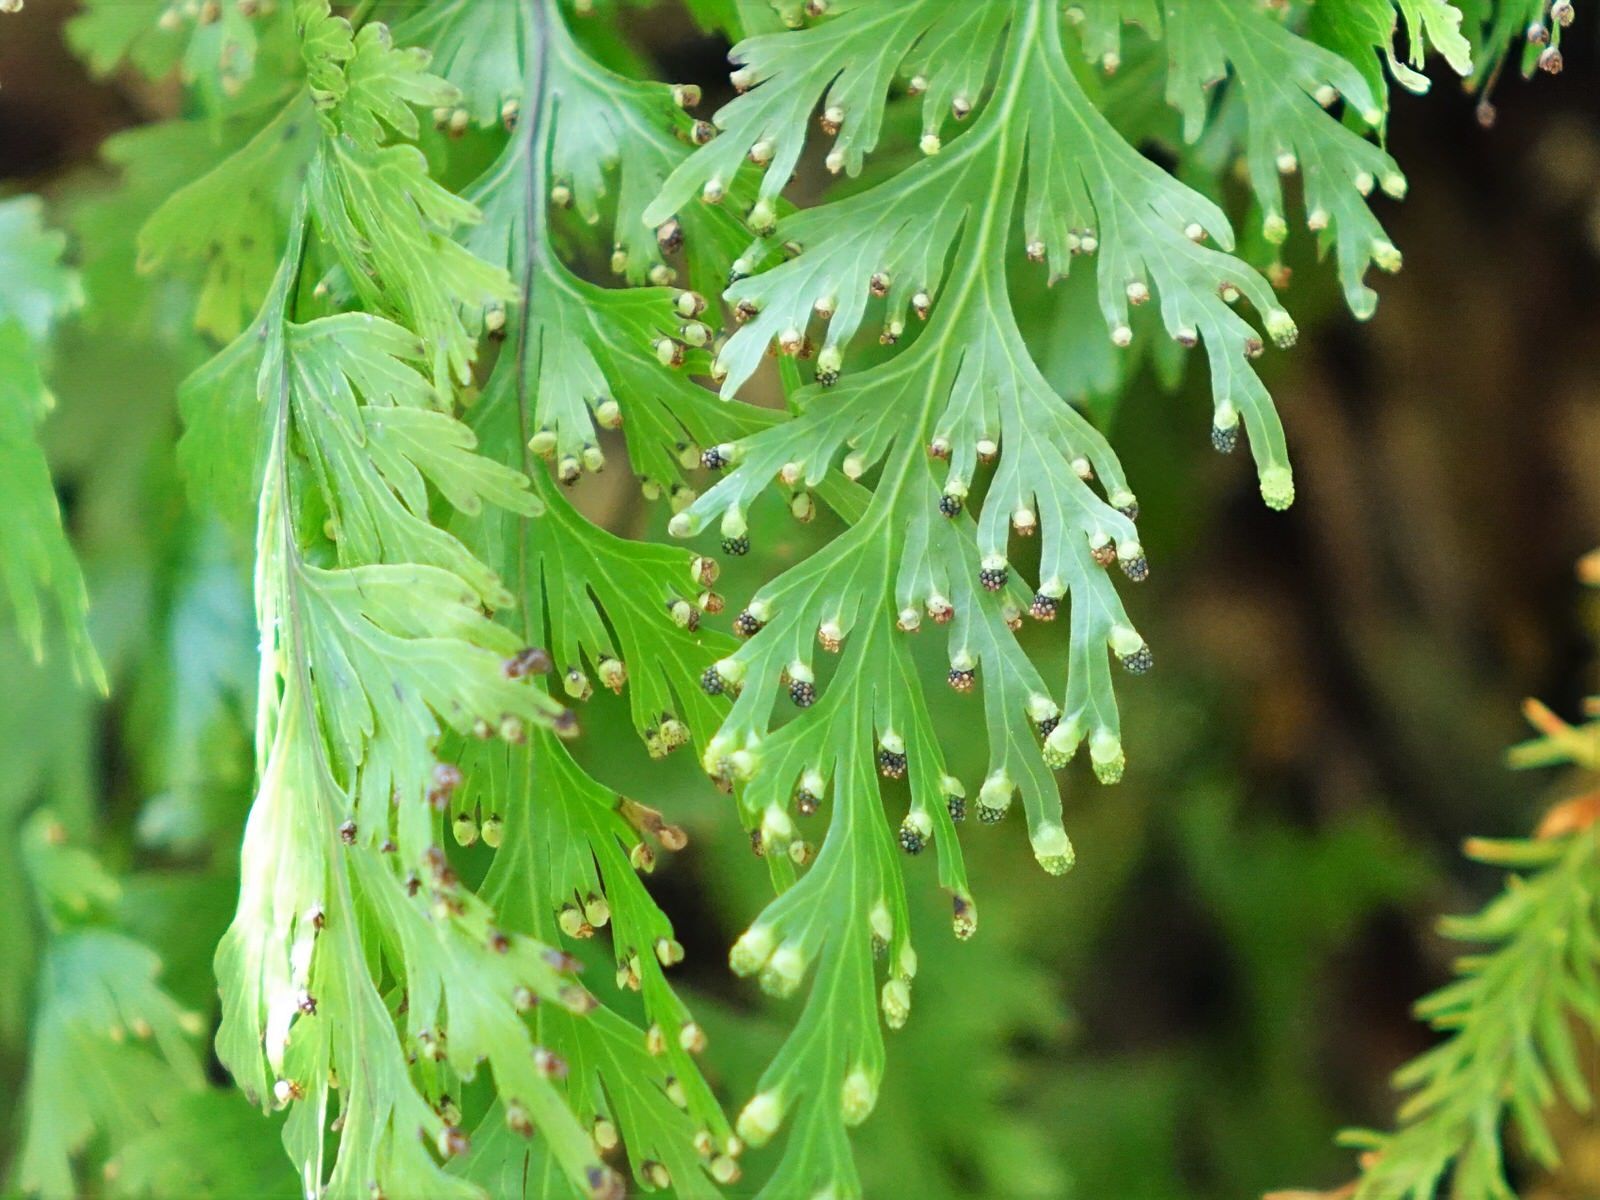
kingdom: Plantae
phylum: Tracheophyta
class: Polypodiopsida
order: Hymenophyllales
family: Hymenophyllaceae
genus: Hymenophyllum
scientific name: Hymenophyllum dilatatum
